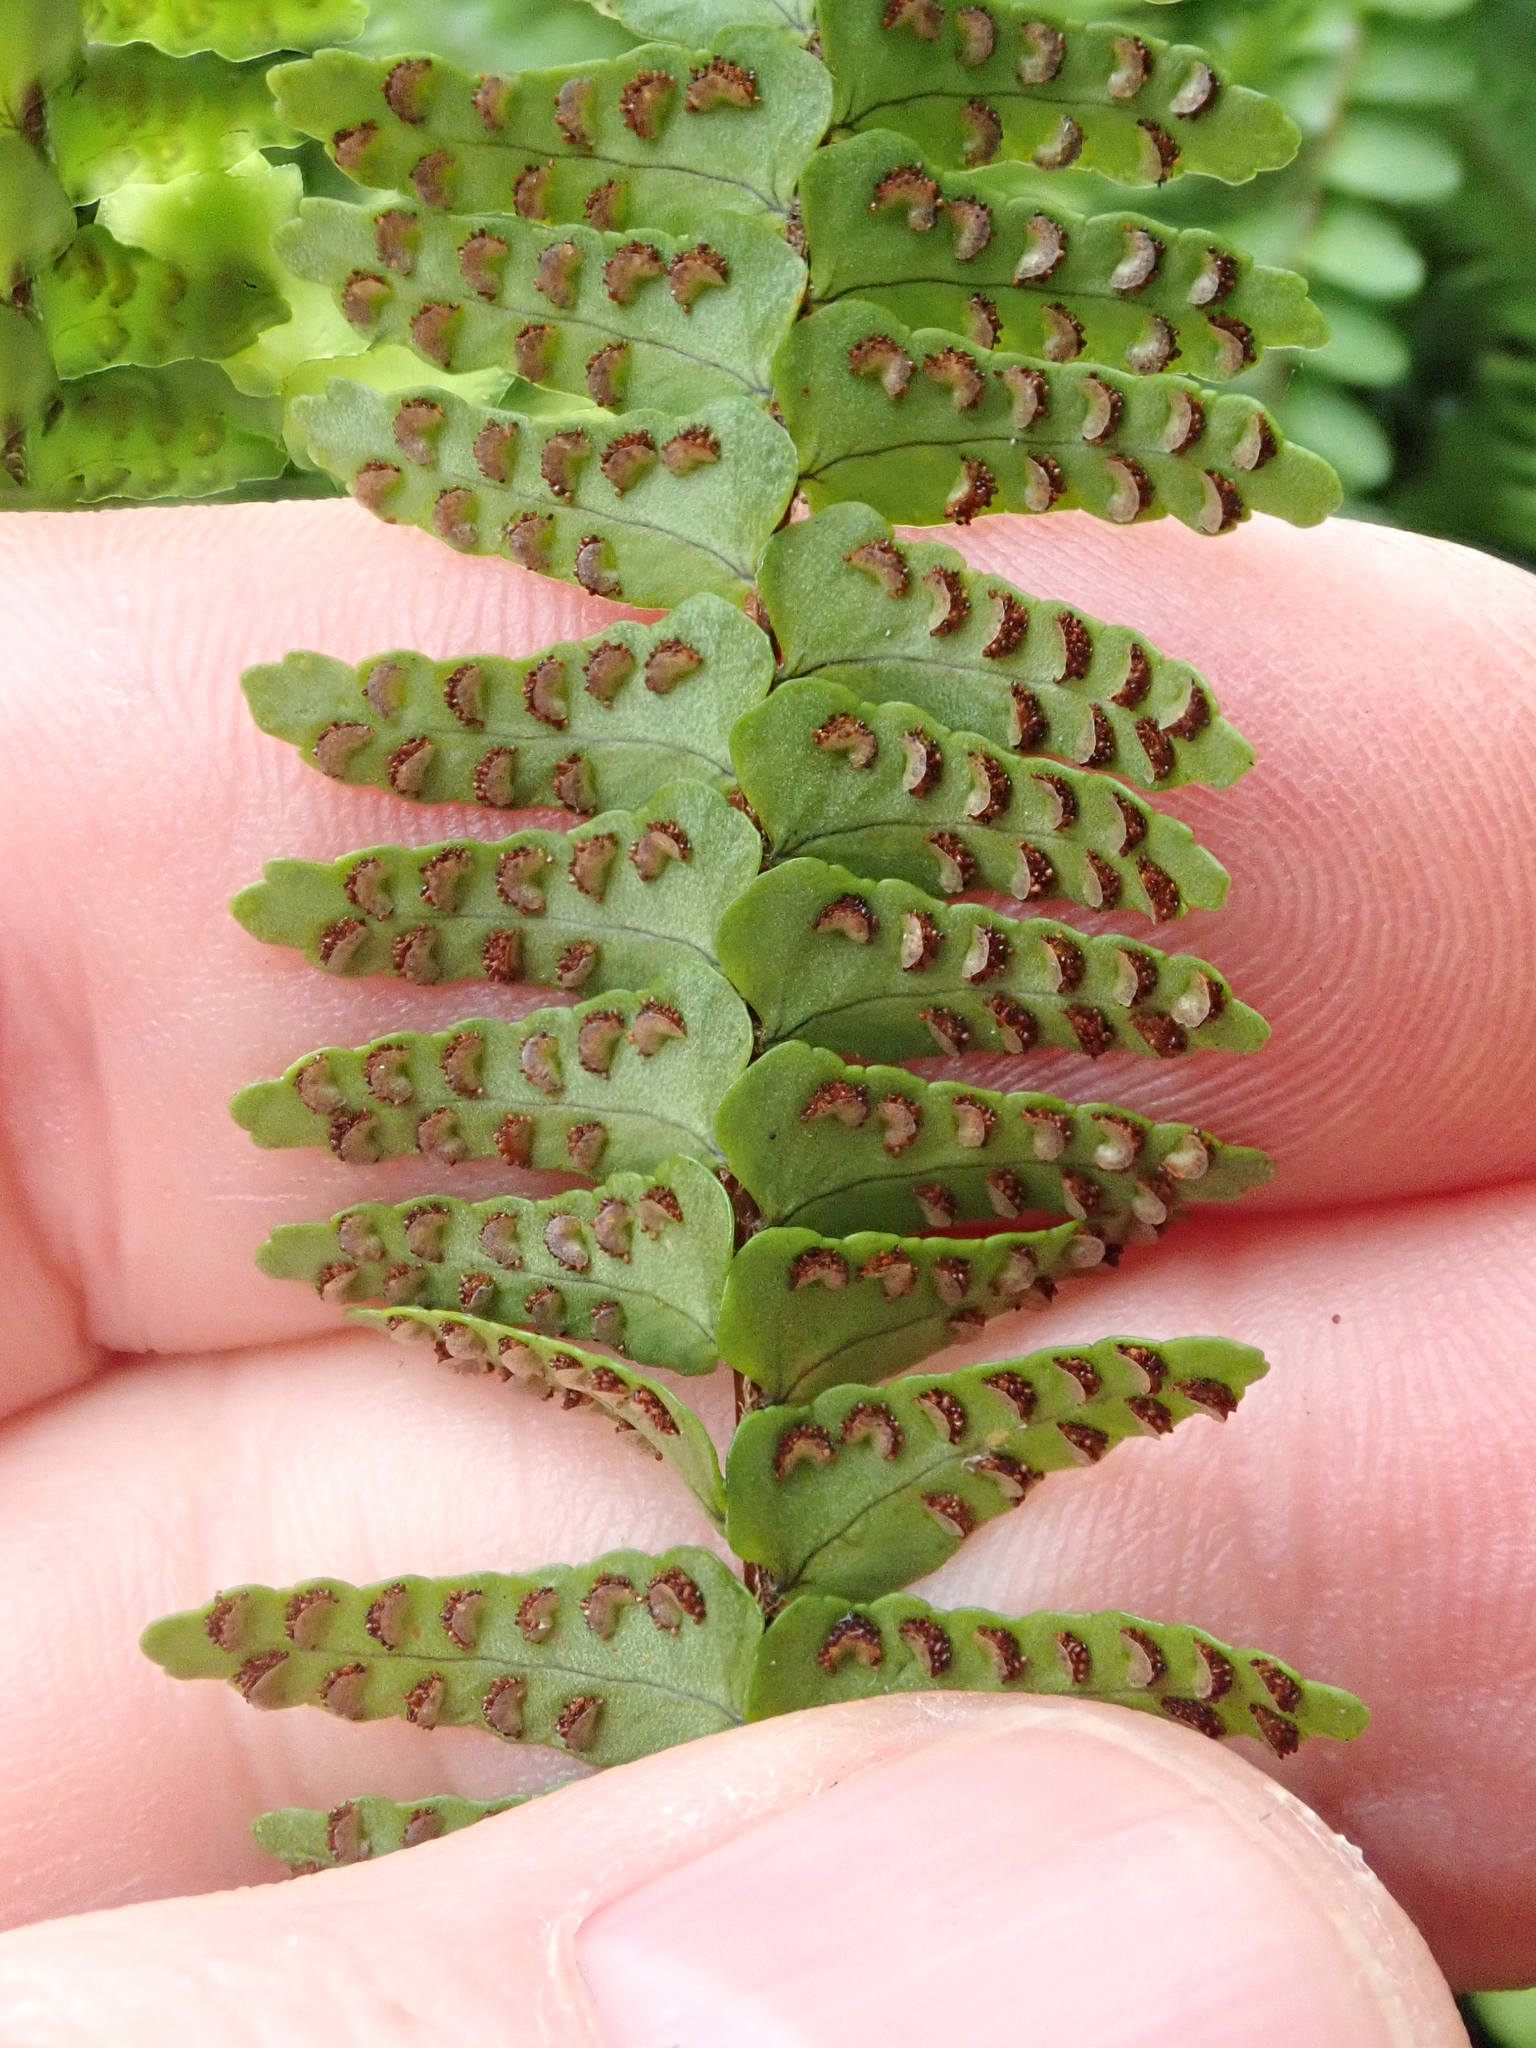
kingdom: Plantae
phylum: Tracheophyta
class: Polypodiopsida
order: Polypodiales
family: Nephrolepidaceae
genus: Nephrolepis
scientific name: Nephrolepis flexuosa
